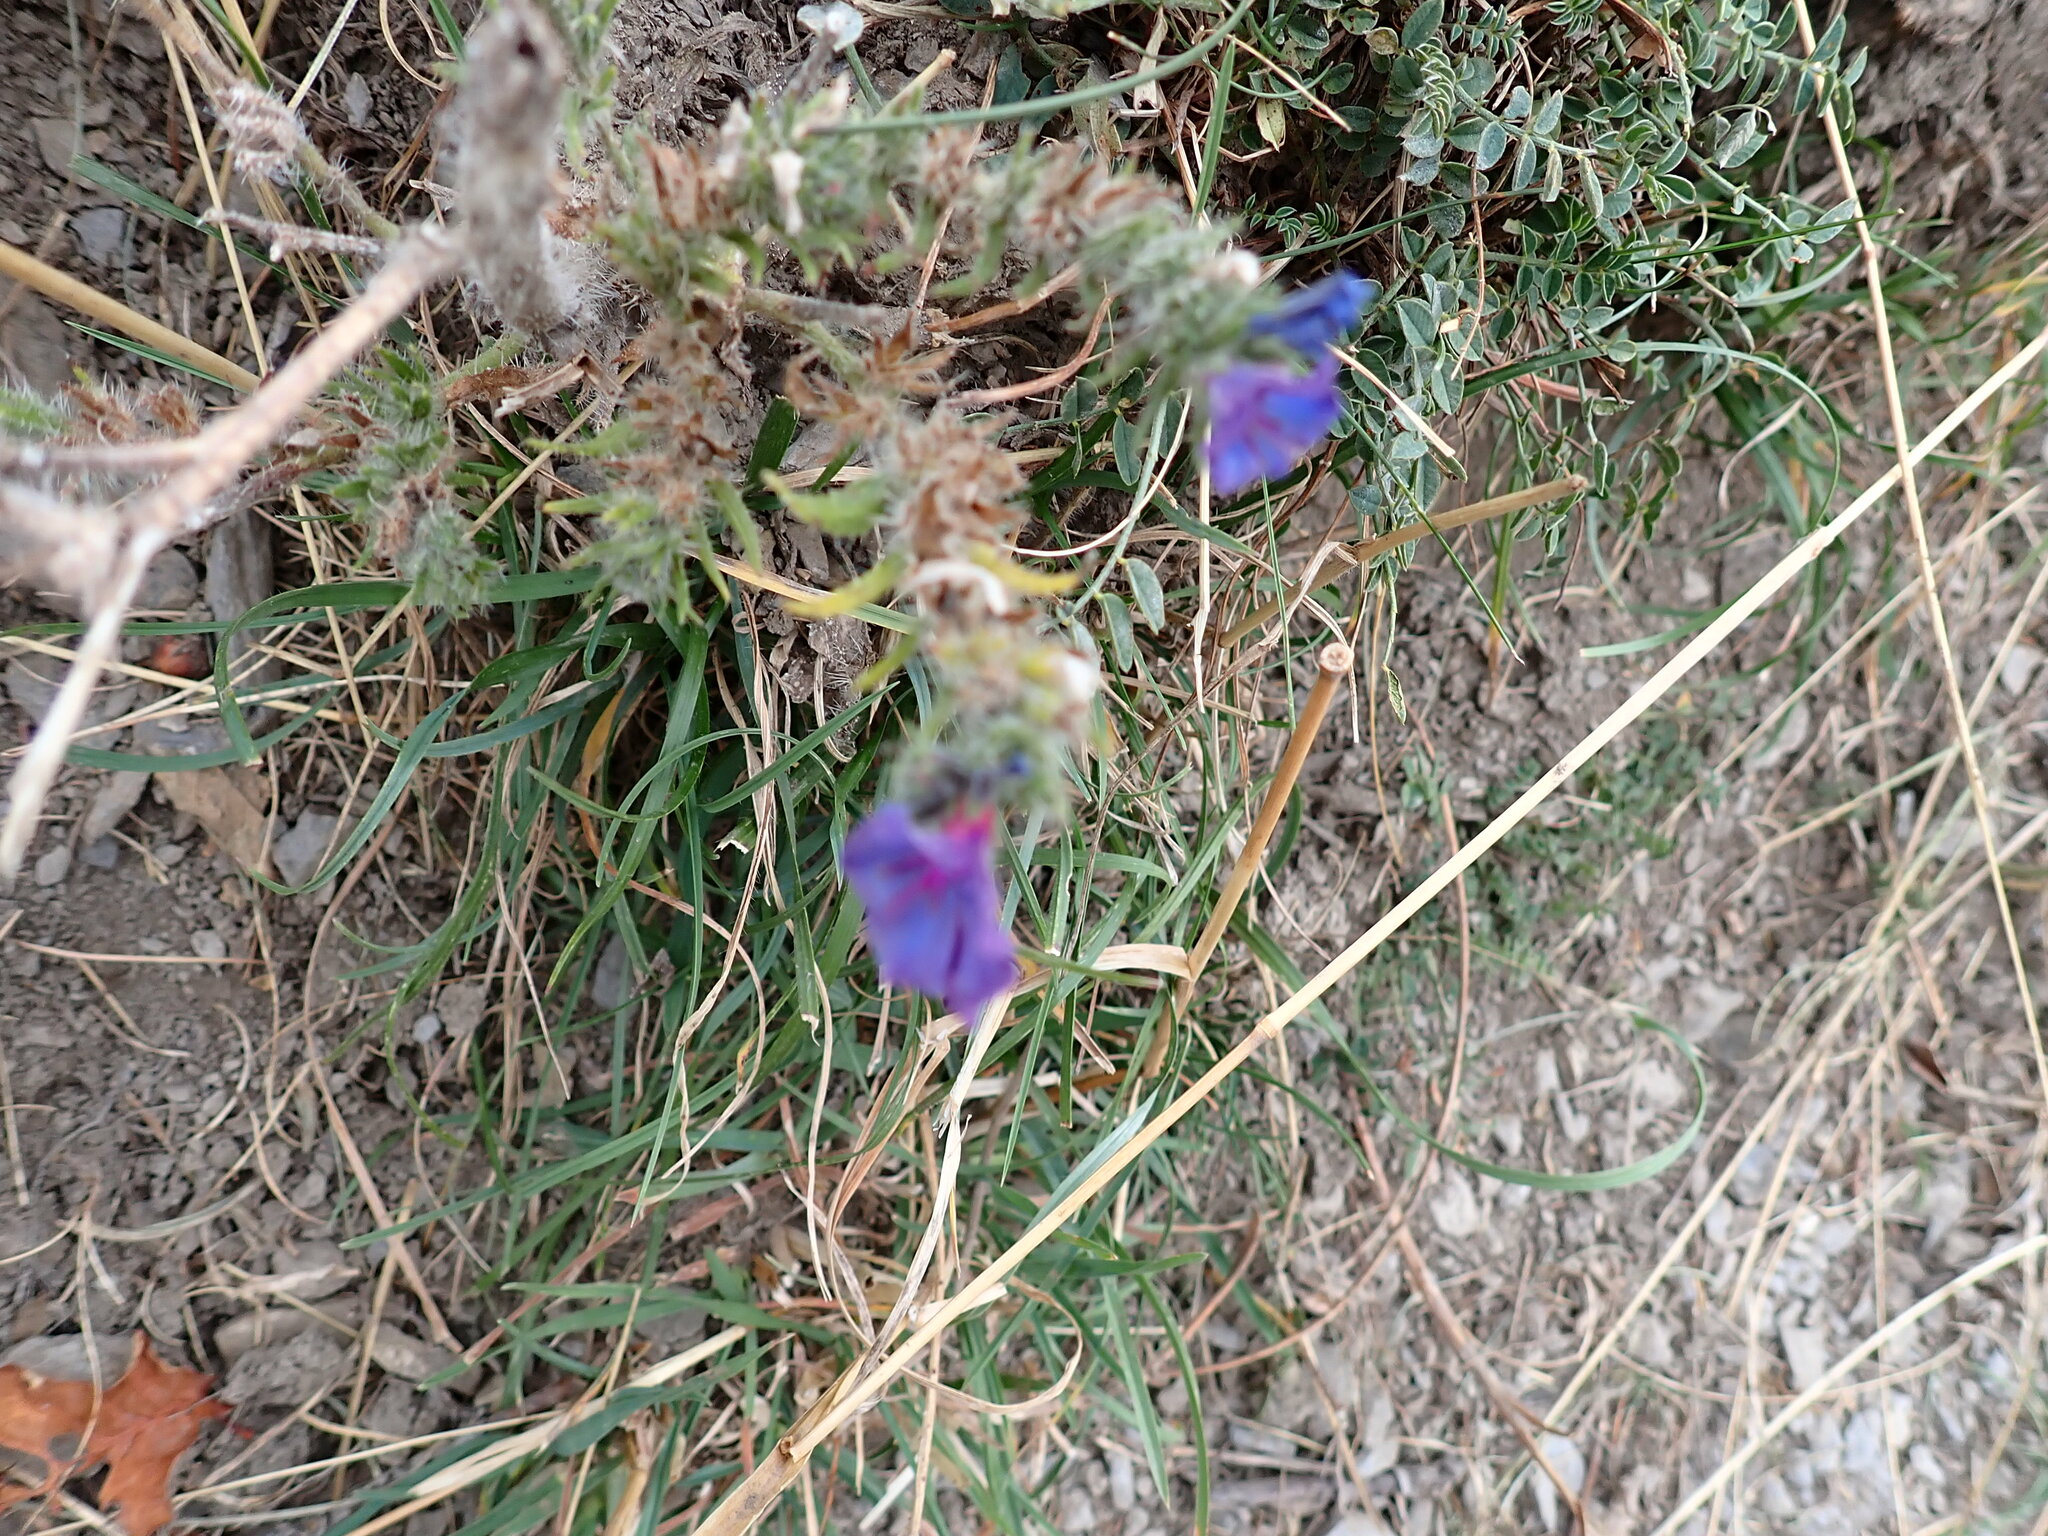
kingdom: Plantae
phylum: Tracheophyta
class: Magnoliopsida
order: Boraginales
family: Boraginaceae
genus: Echium
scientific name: Echium vulgare
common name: Common viper's bugloss
